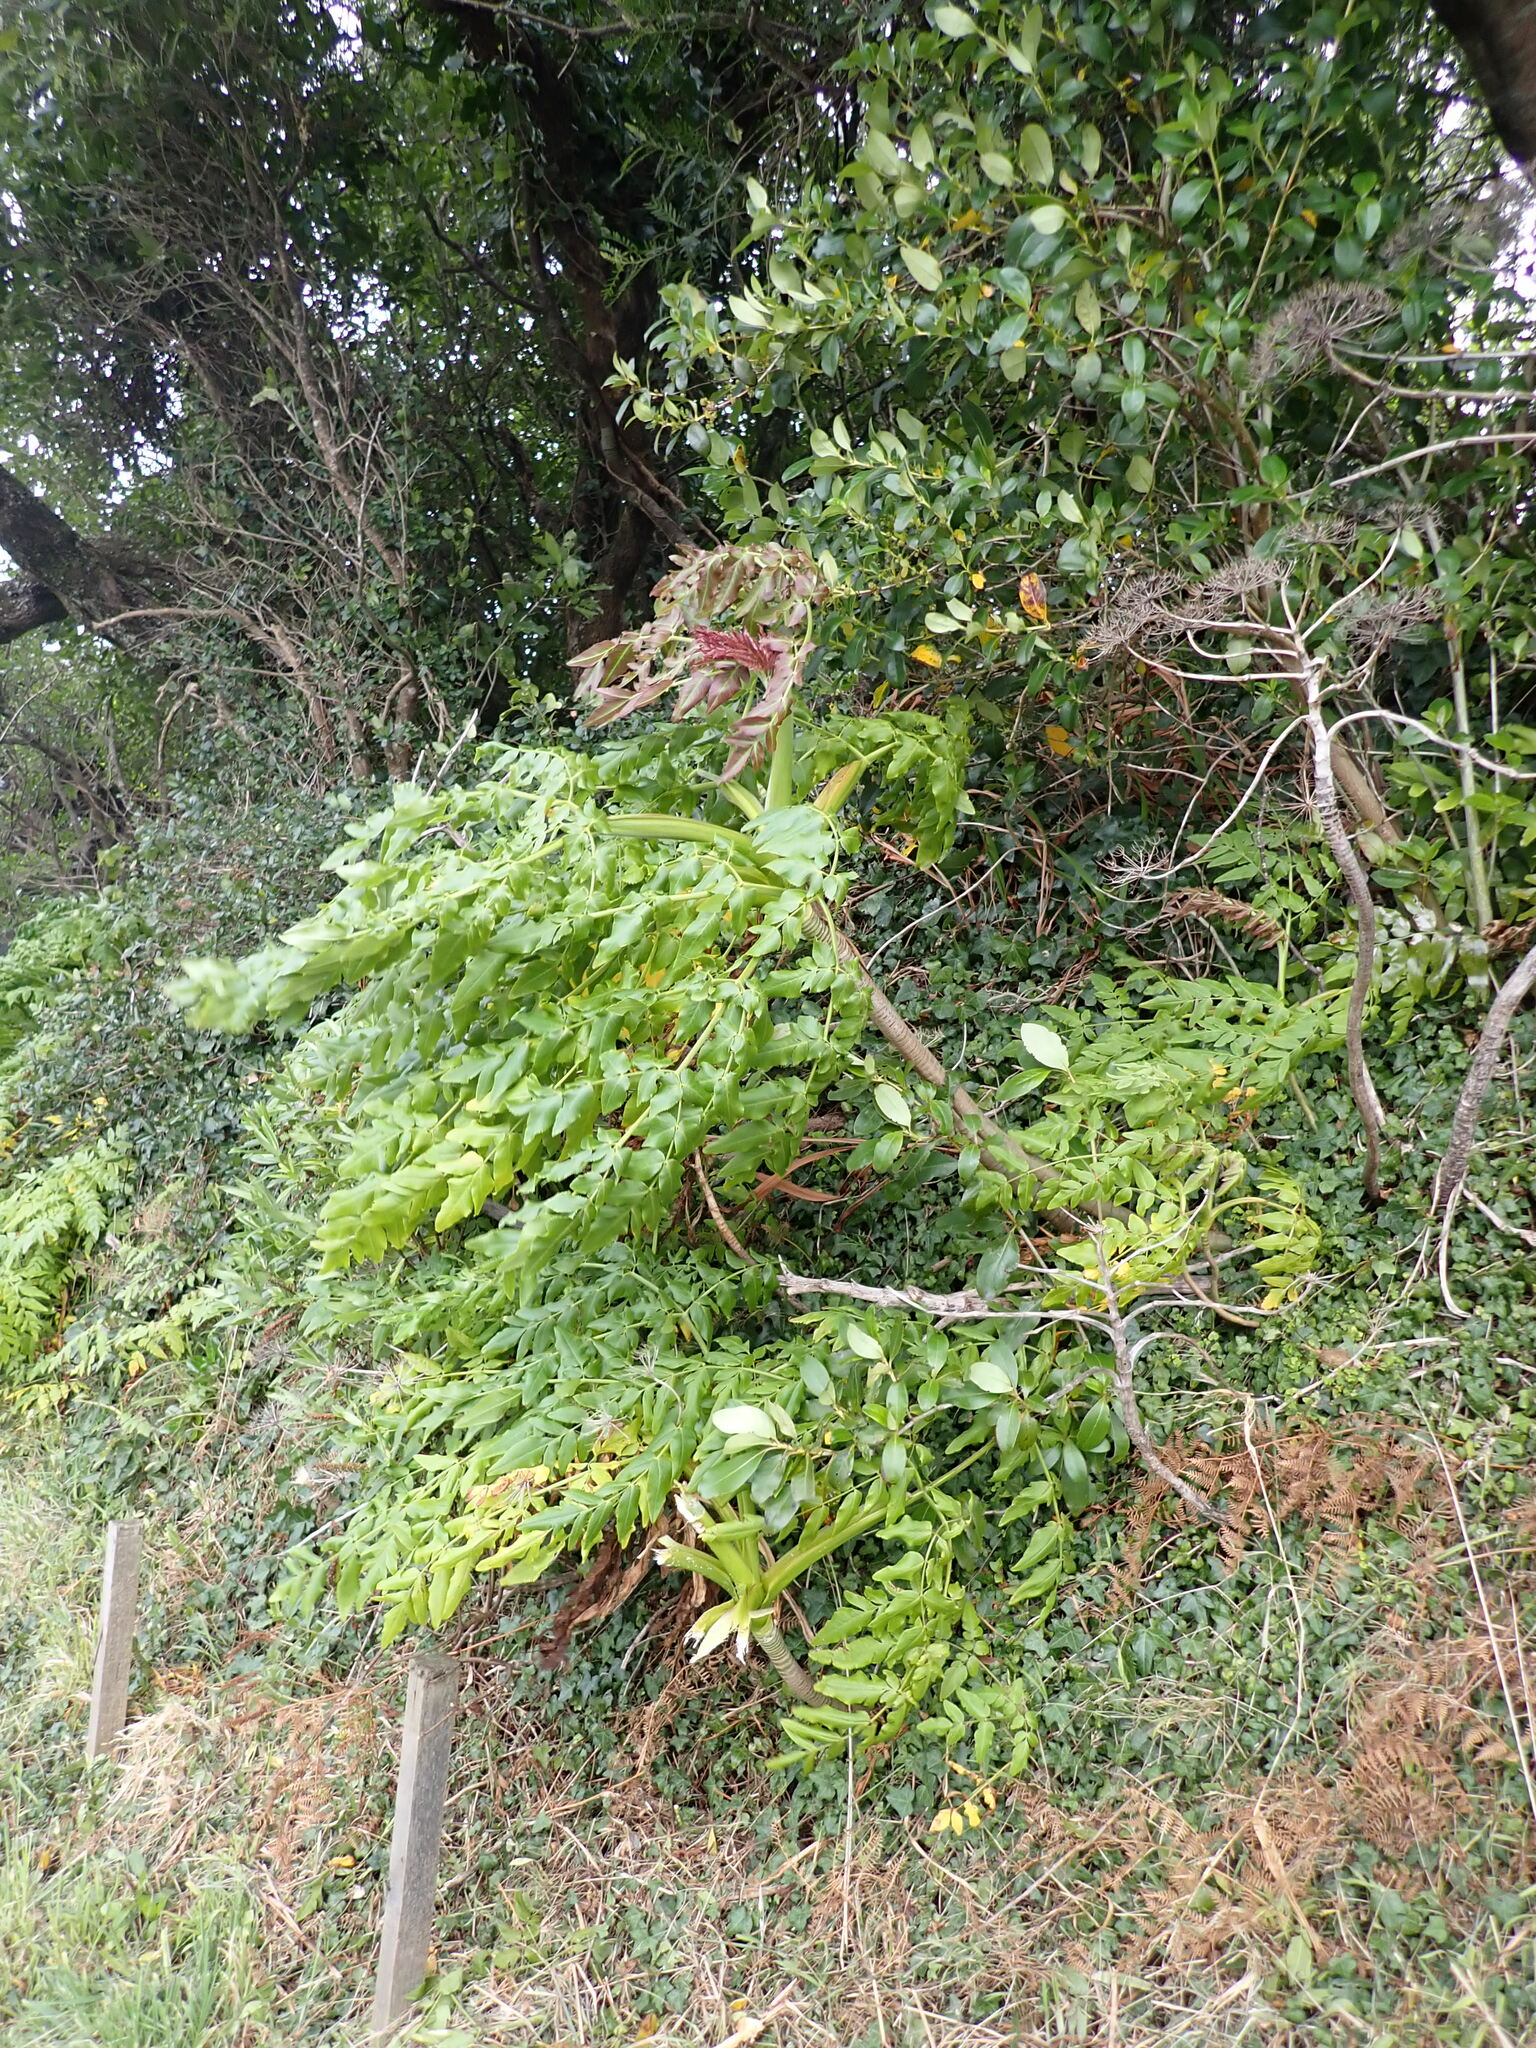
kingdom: Plantae
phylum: Tracheophyta
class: Magnoliopsida
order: Apiales
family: Apiaceae
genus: Daucus
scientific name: Daucus decipiens
